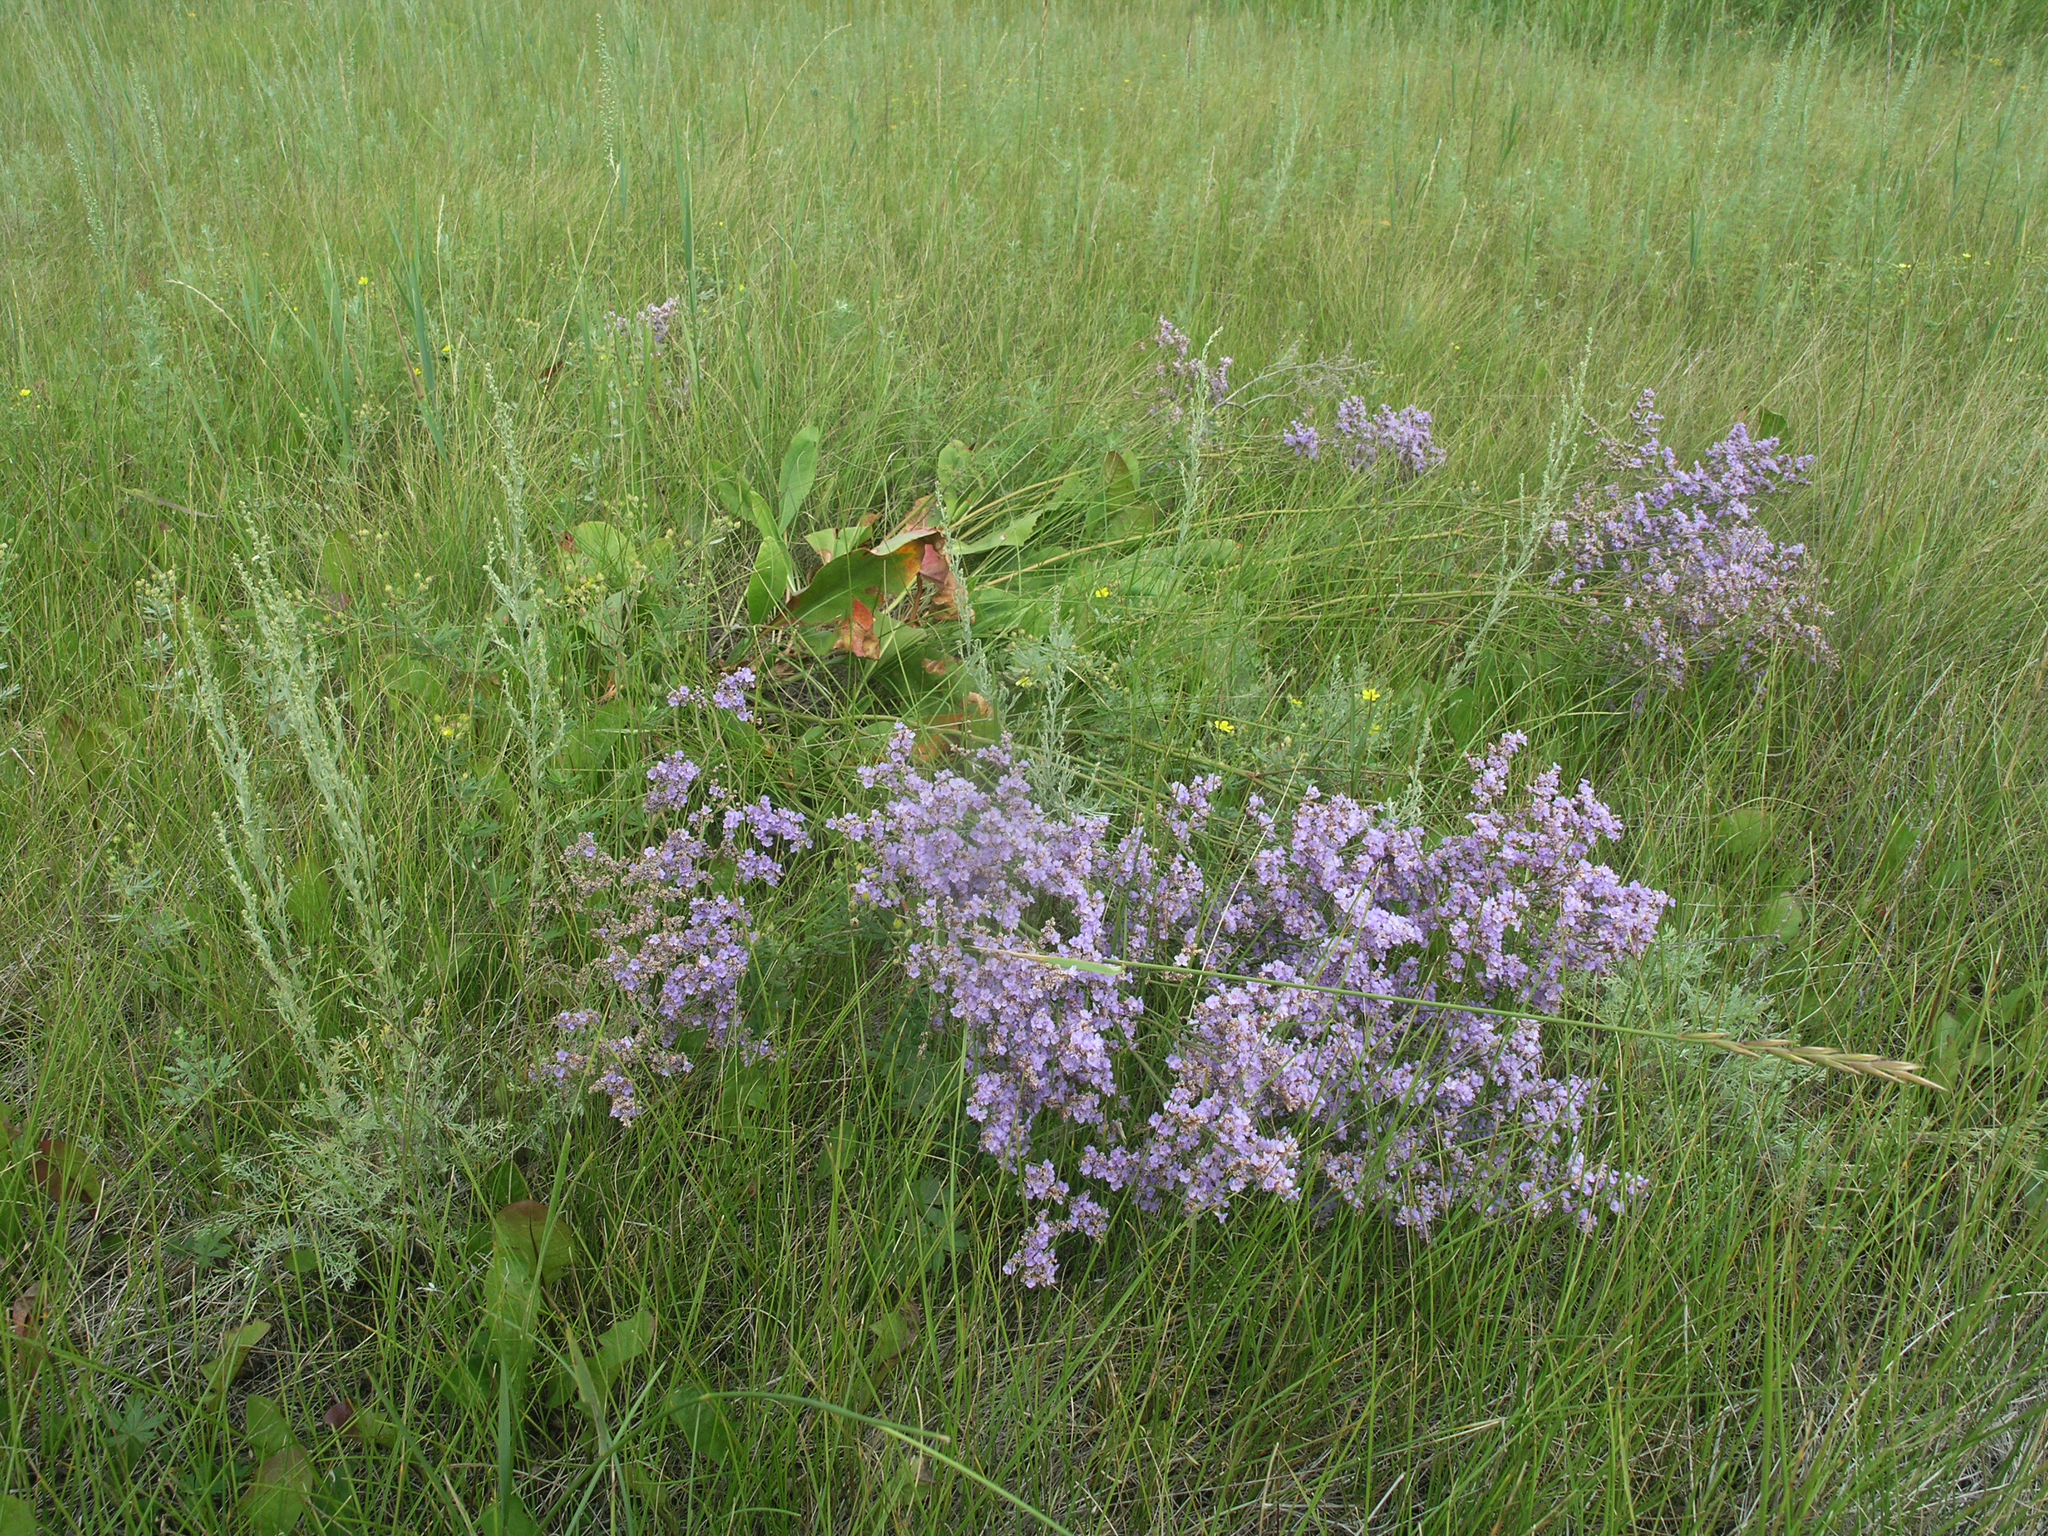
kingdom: Plantae
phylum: Tracheophyta
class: Magnoliopsida
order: Caryophyllales
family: Plumbaginaceae
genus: Limonium
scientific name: Limonium gmelini
